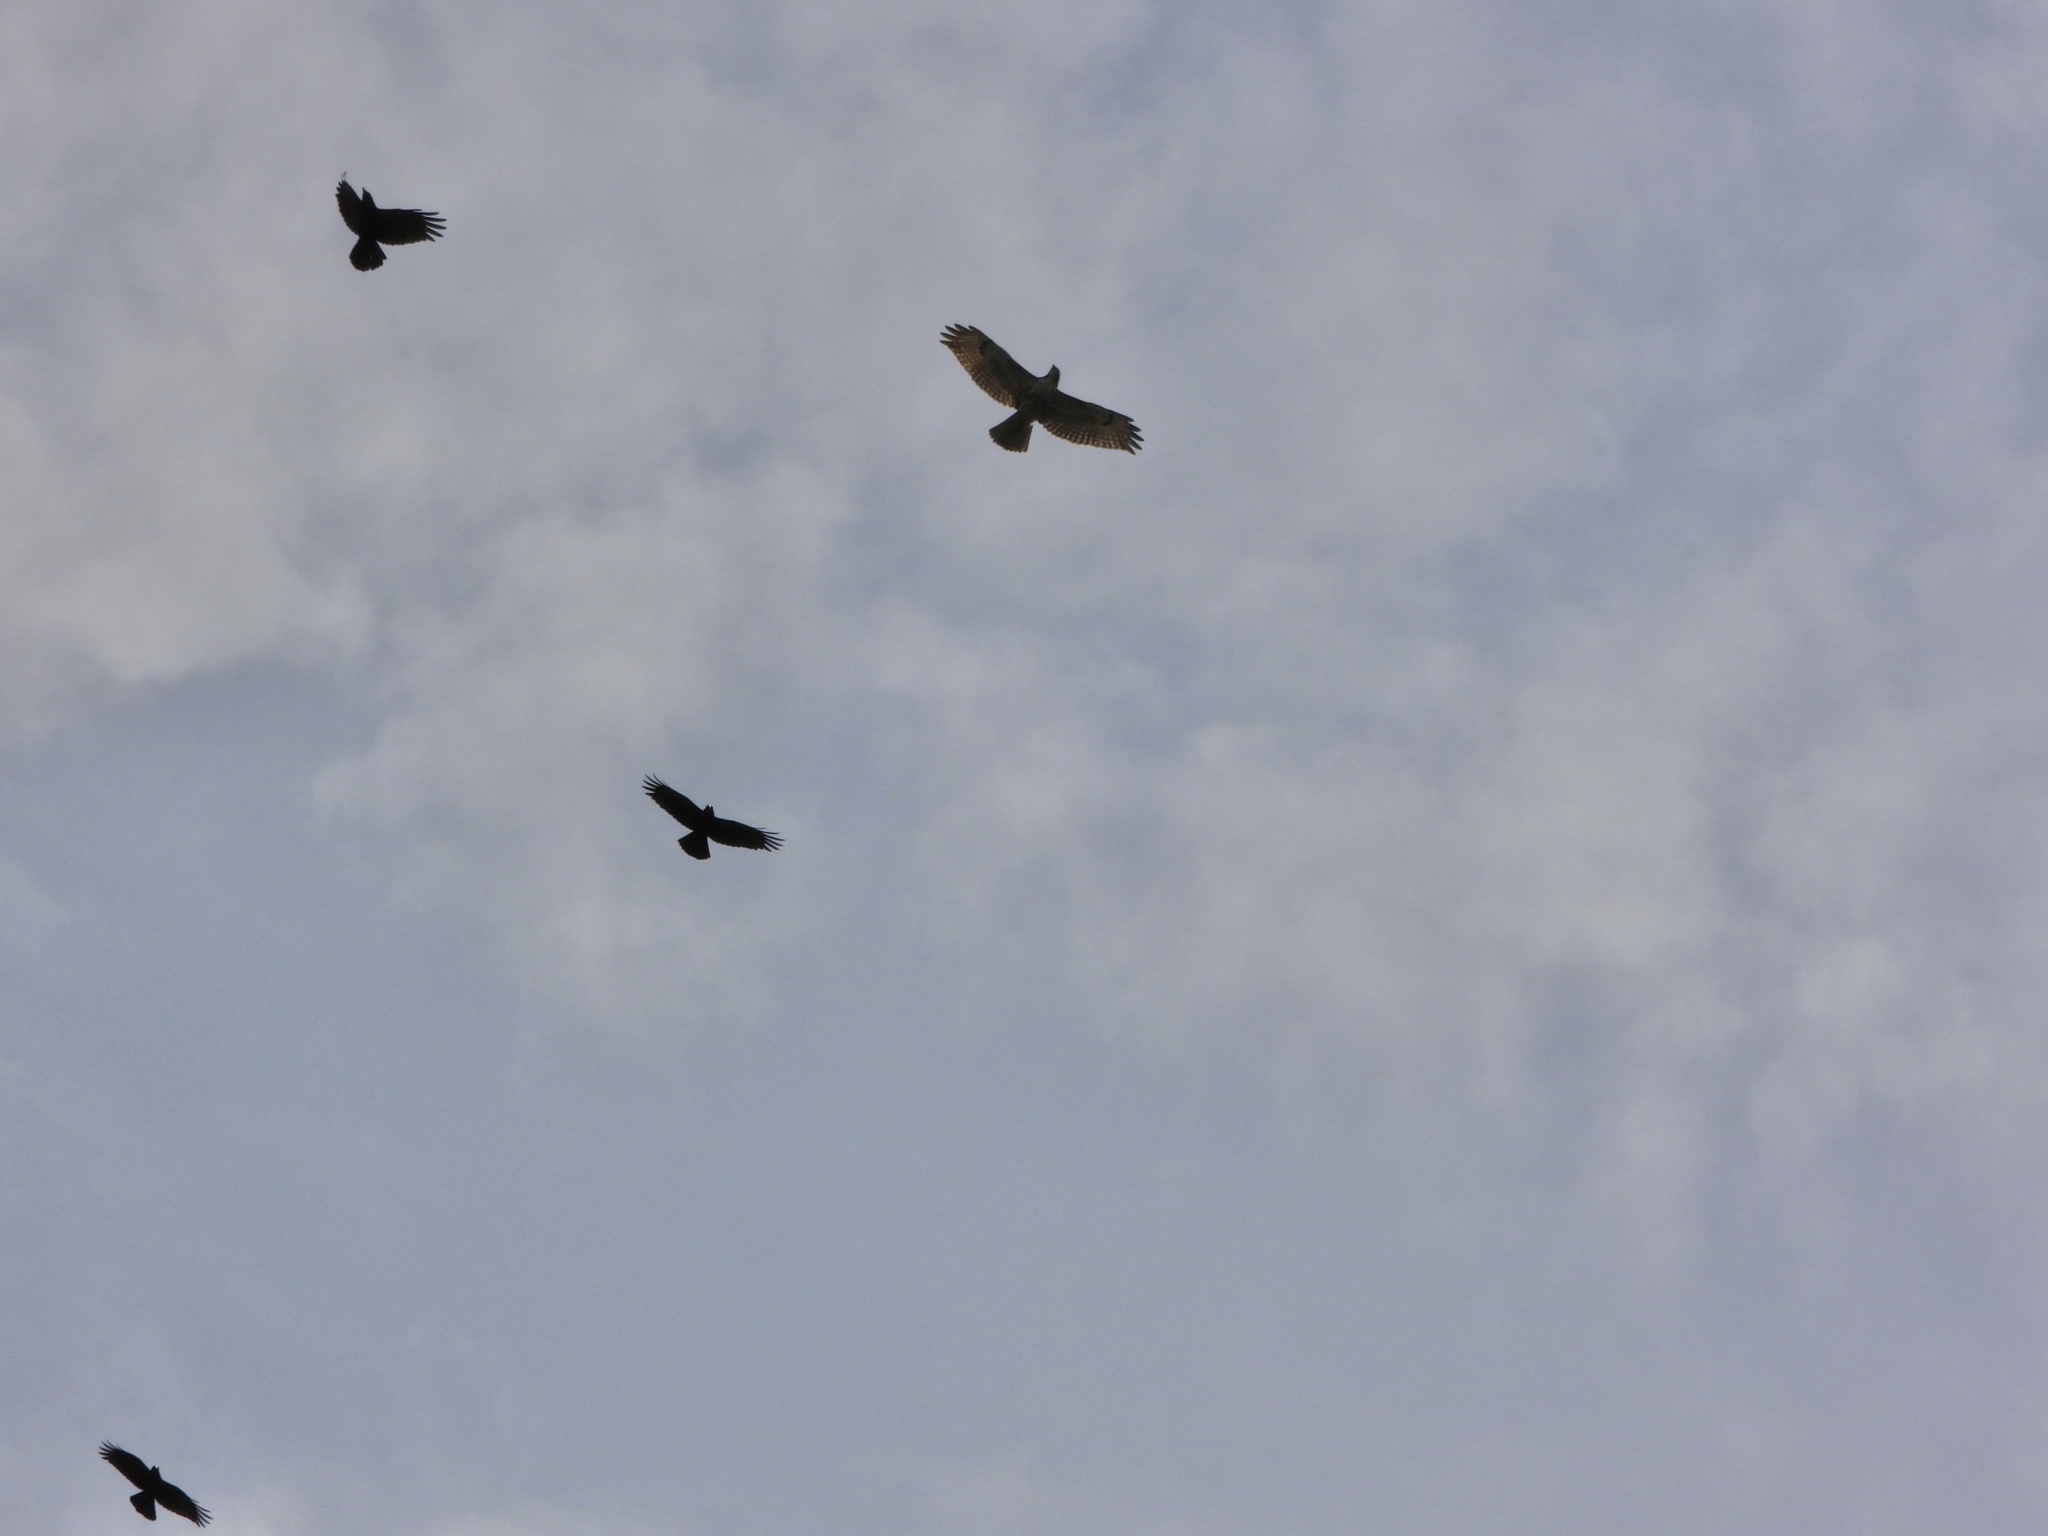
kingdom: Animalia
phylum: Chordata
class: Aves
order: Passeriformes
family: Corvidae
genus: Corvus
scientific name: Corvus brachyrhynchos
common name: American crow
